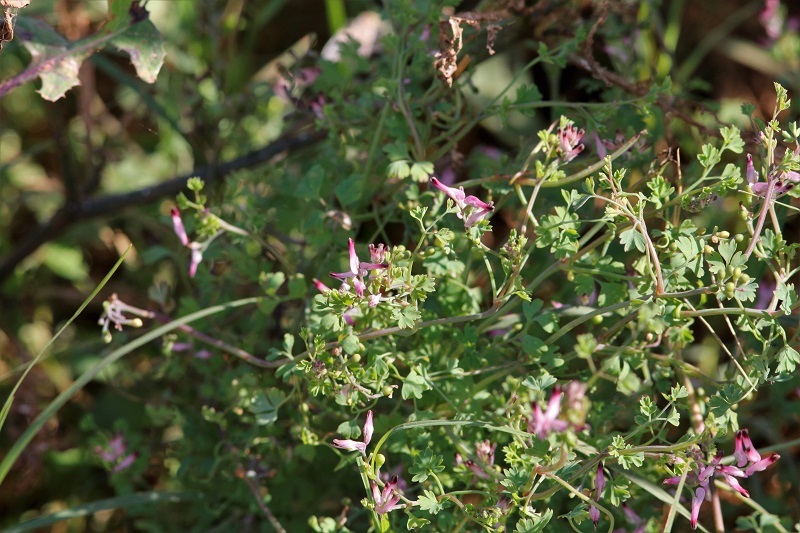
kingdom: Plantae
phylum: Tracheophyta
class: Magnoliopsida
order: Ranunculales
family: Papaveraceae
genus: Fumaria
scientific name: Fumaria muralis
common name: Common ramping-fumitory
